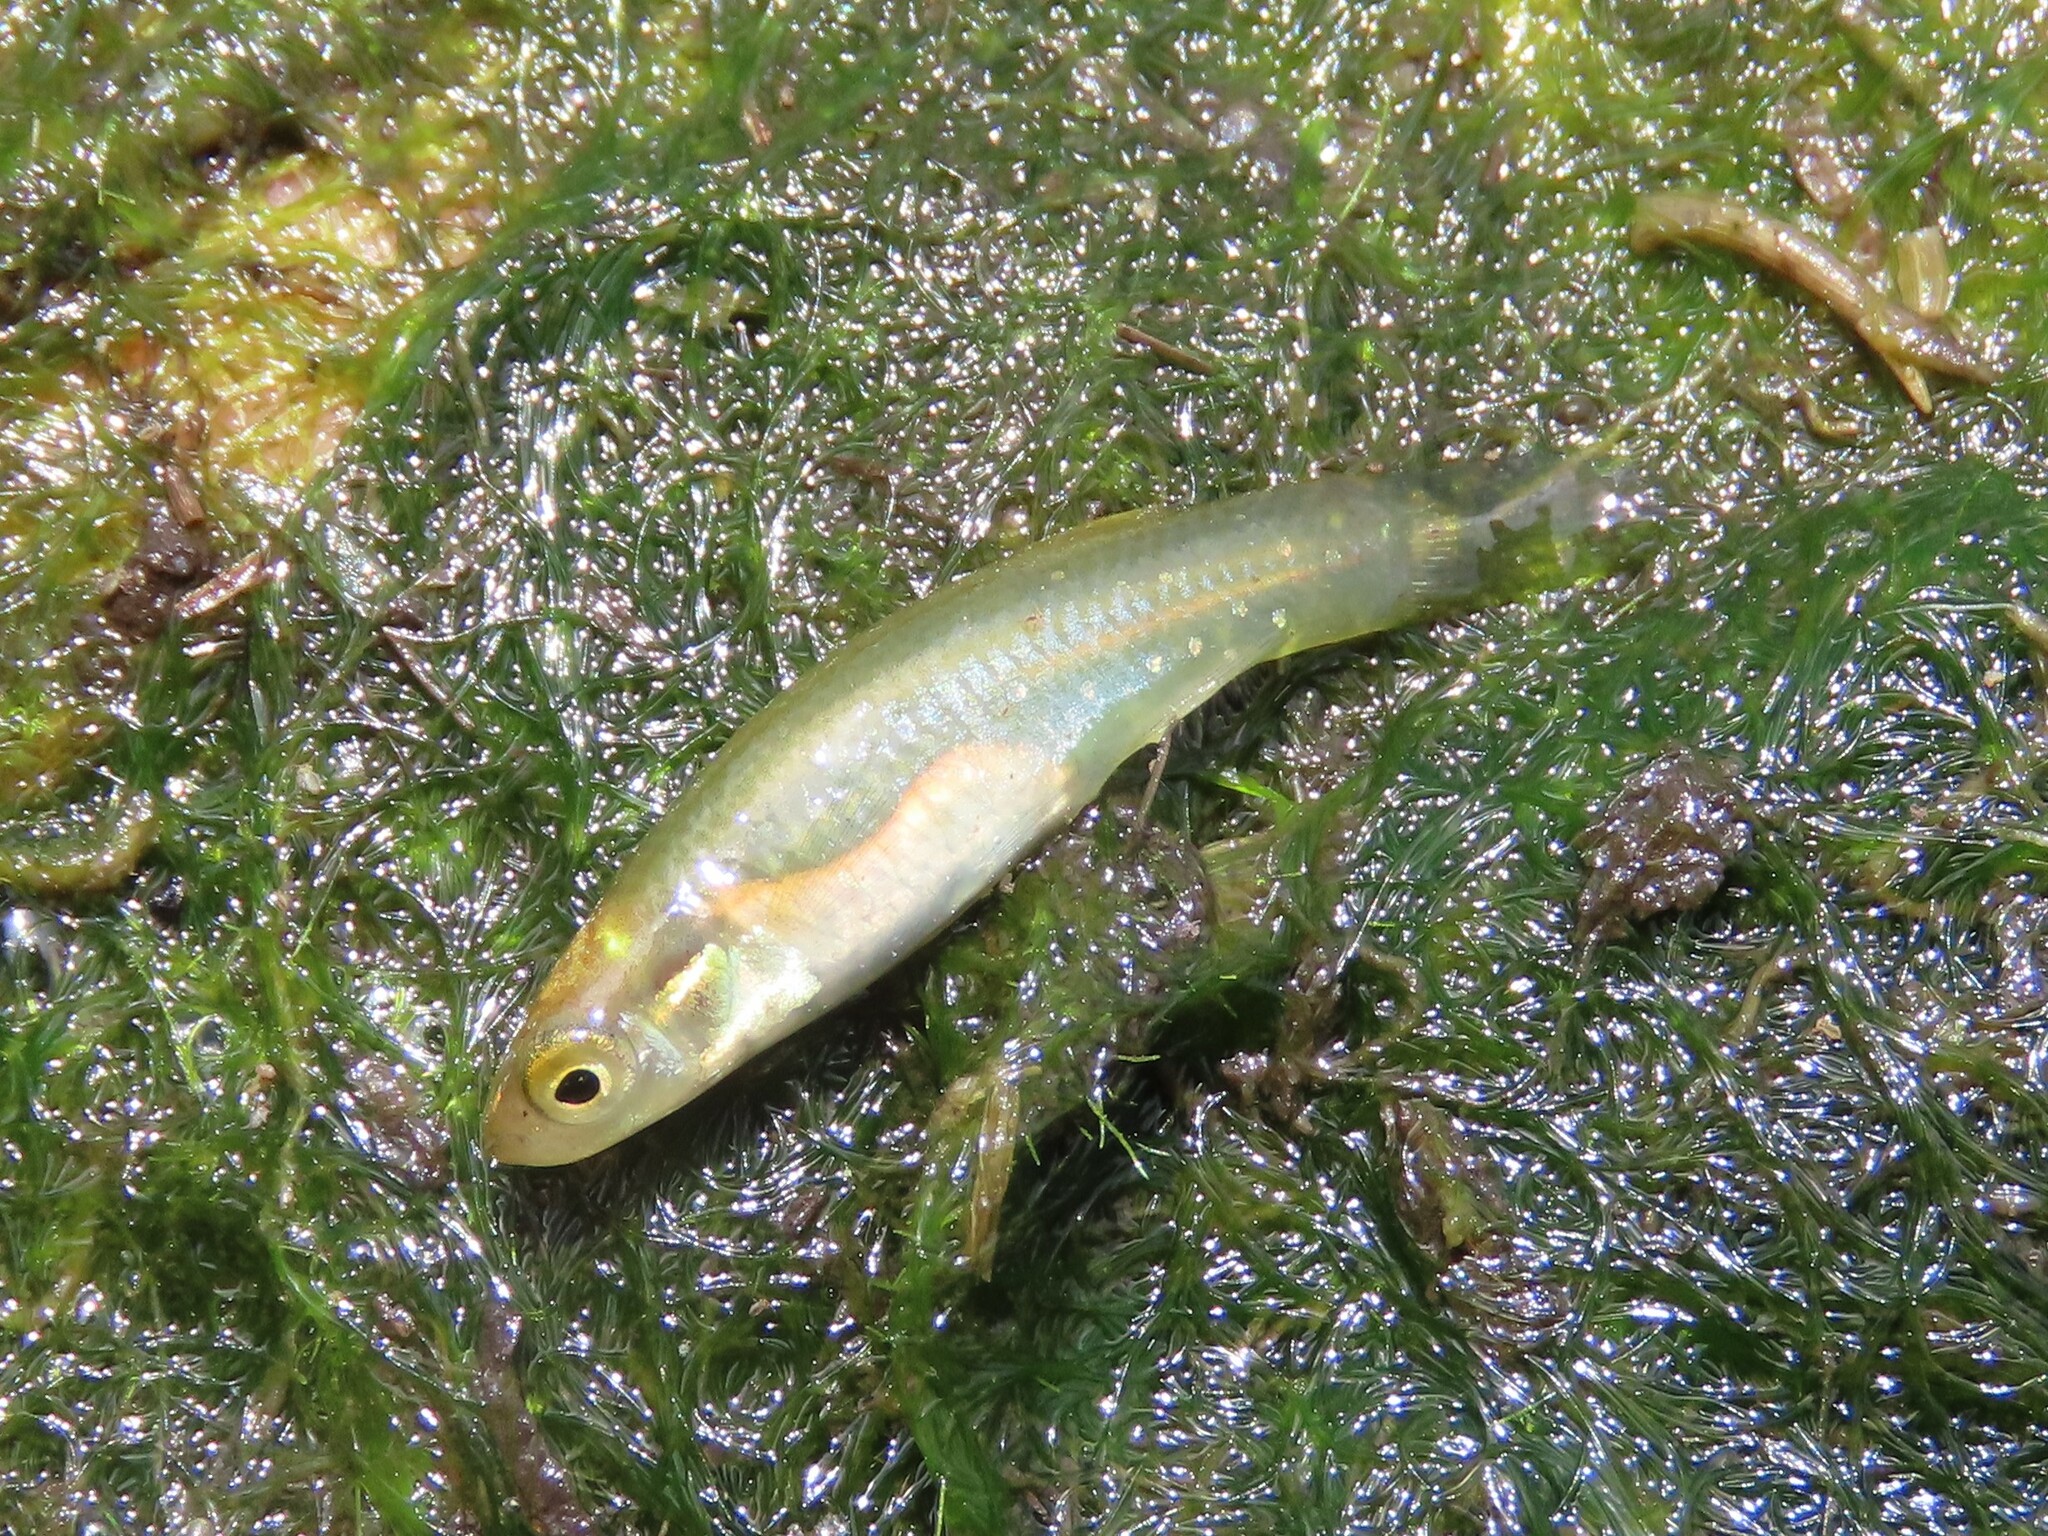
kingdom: Animalia
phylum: Chordata
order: Cyprinodontiformes
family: Fundulidae
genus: Fundulus
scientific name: Fundulus chrysotus
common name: Golden topminnow
